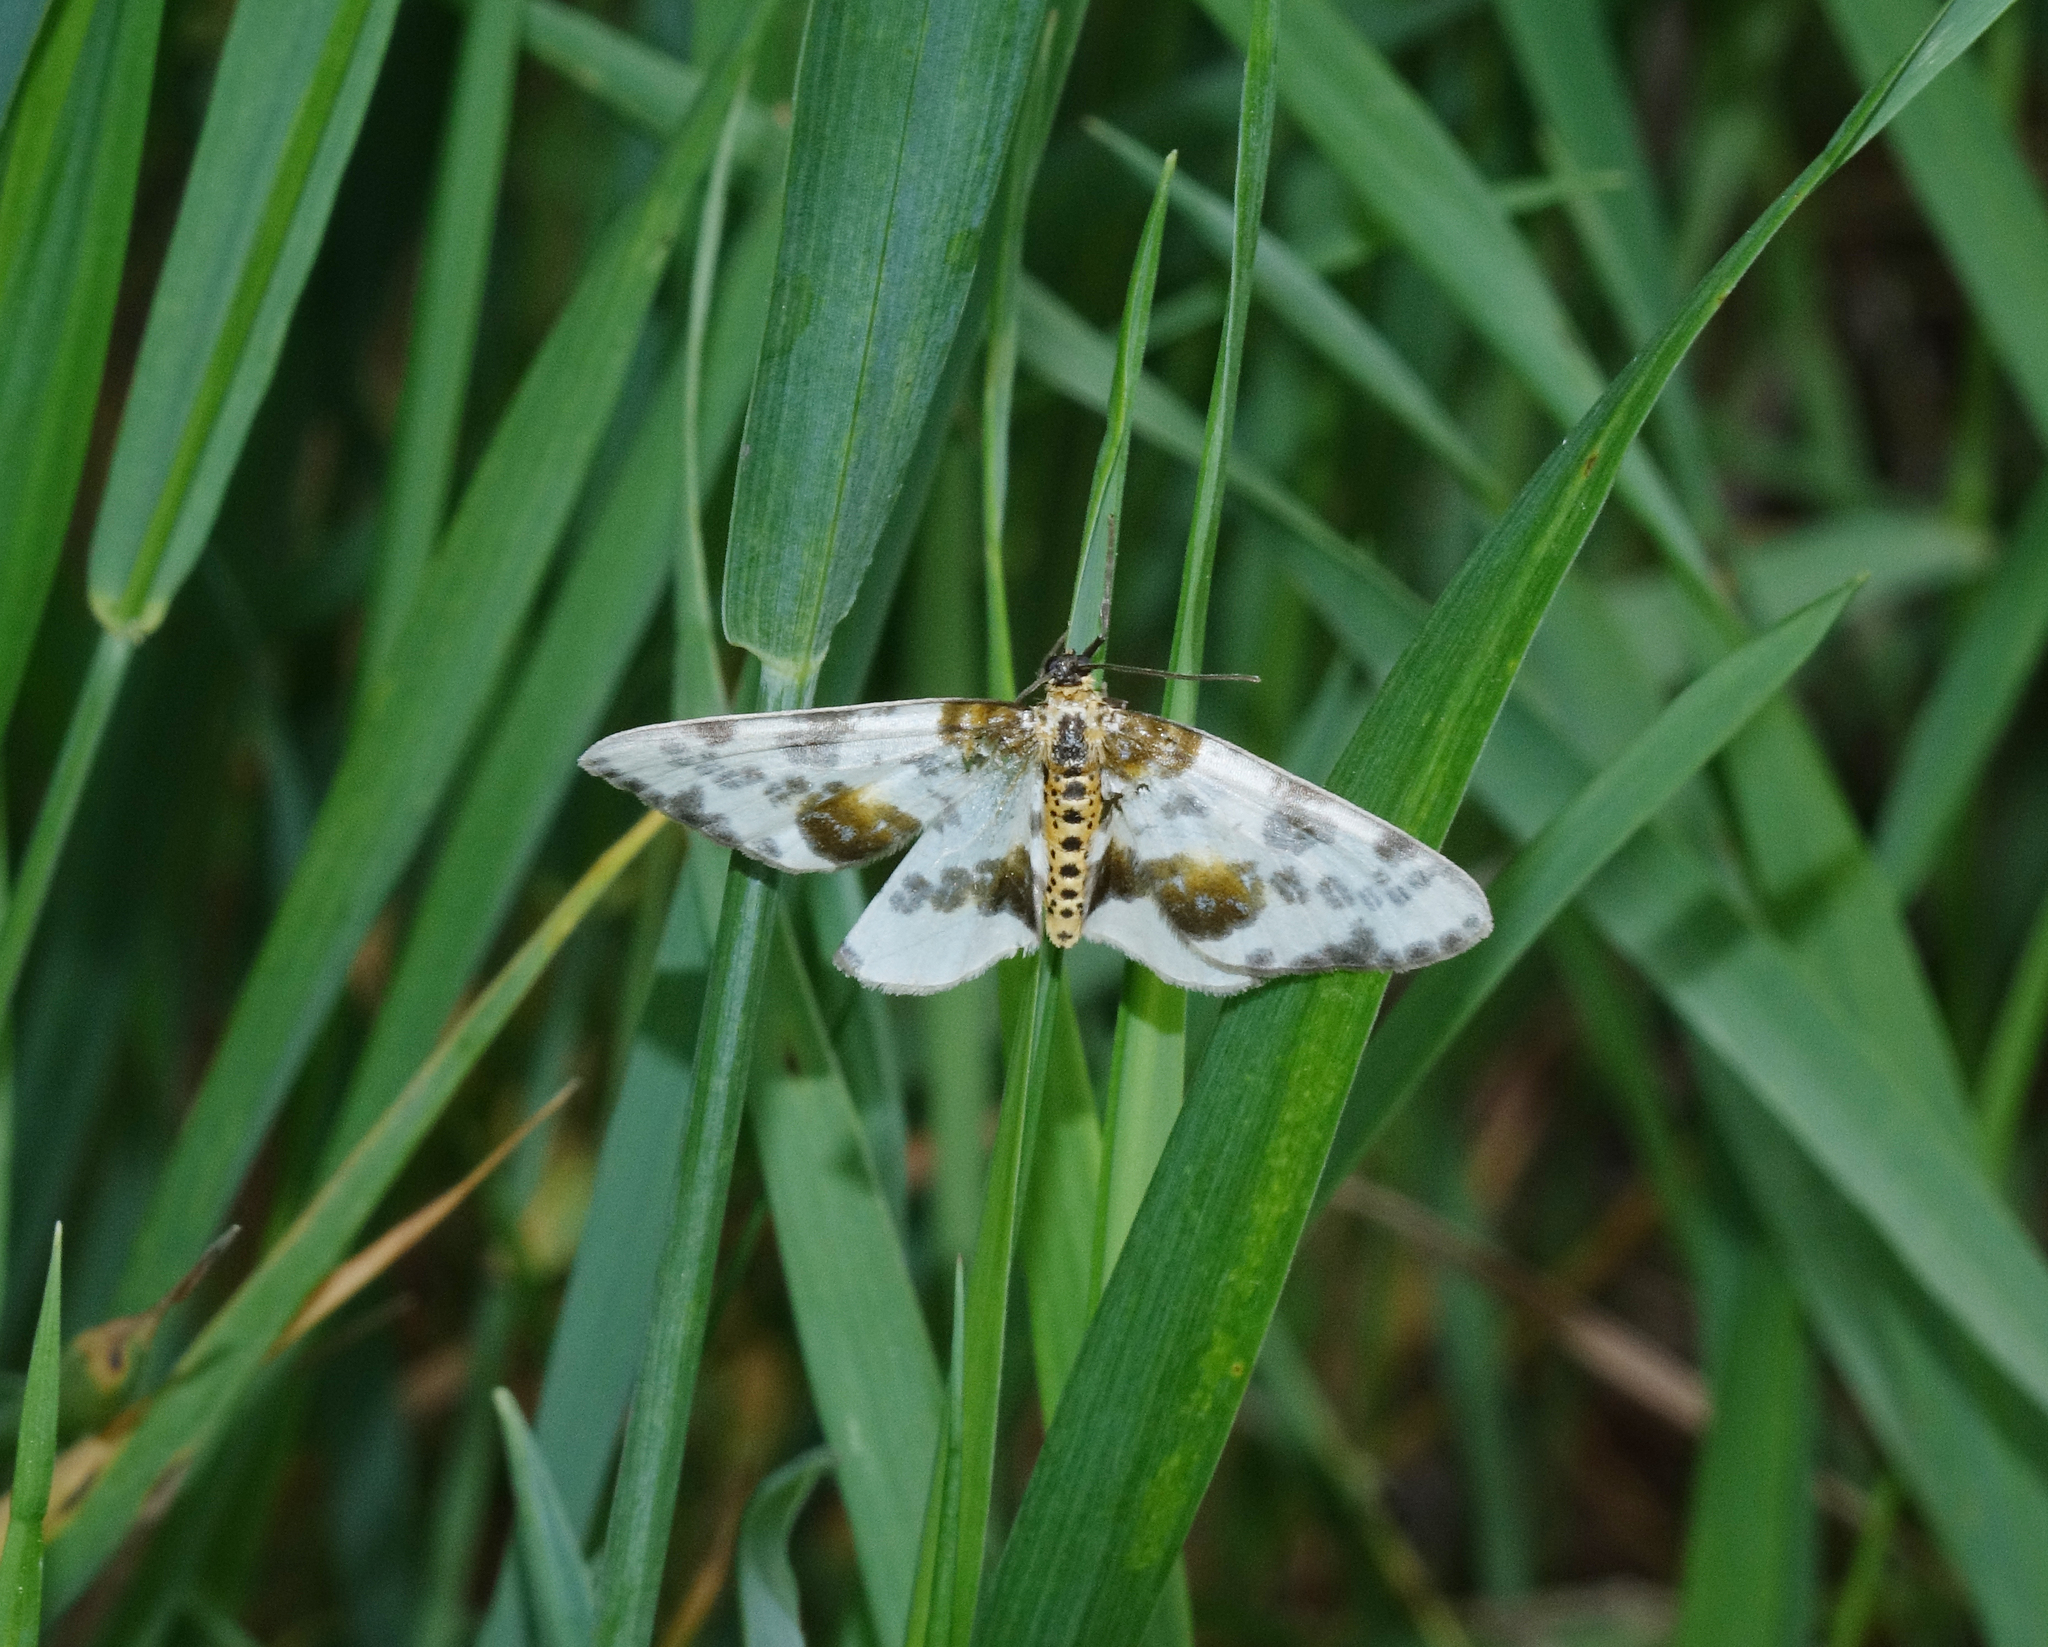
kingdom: Animalia
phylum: Arthropoda
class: Insecta
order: Lepidoptera
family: Geometridae
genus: Abraxas
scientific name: Abraxas sylvata
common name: Clouded magpie
